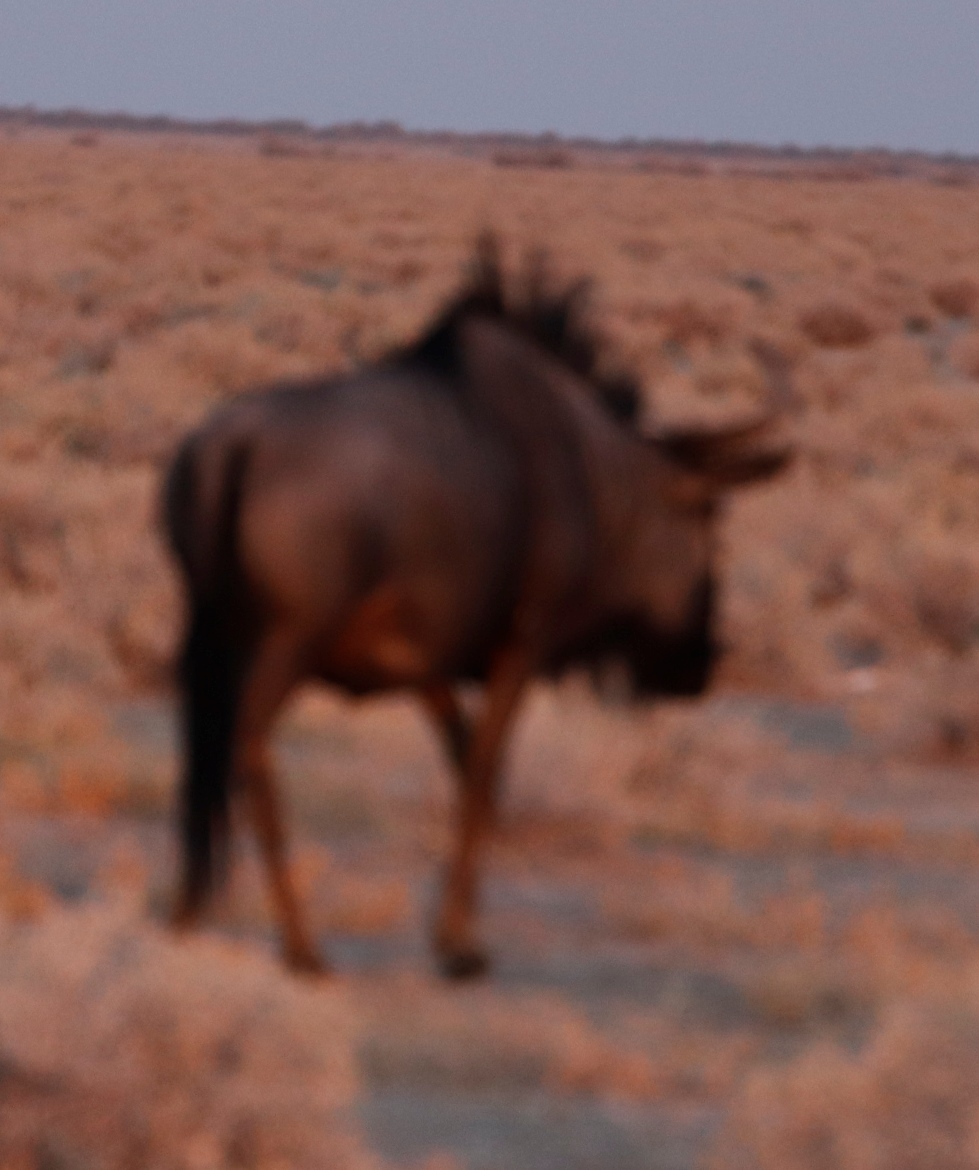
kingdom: Animalia
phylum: Chordata
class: Mammalia
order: Artiodactyla
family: Bovidae
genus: Connochaetes
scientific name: Connochaetes taurinus
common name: Blue wildebeest
